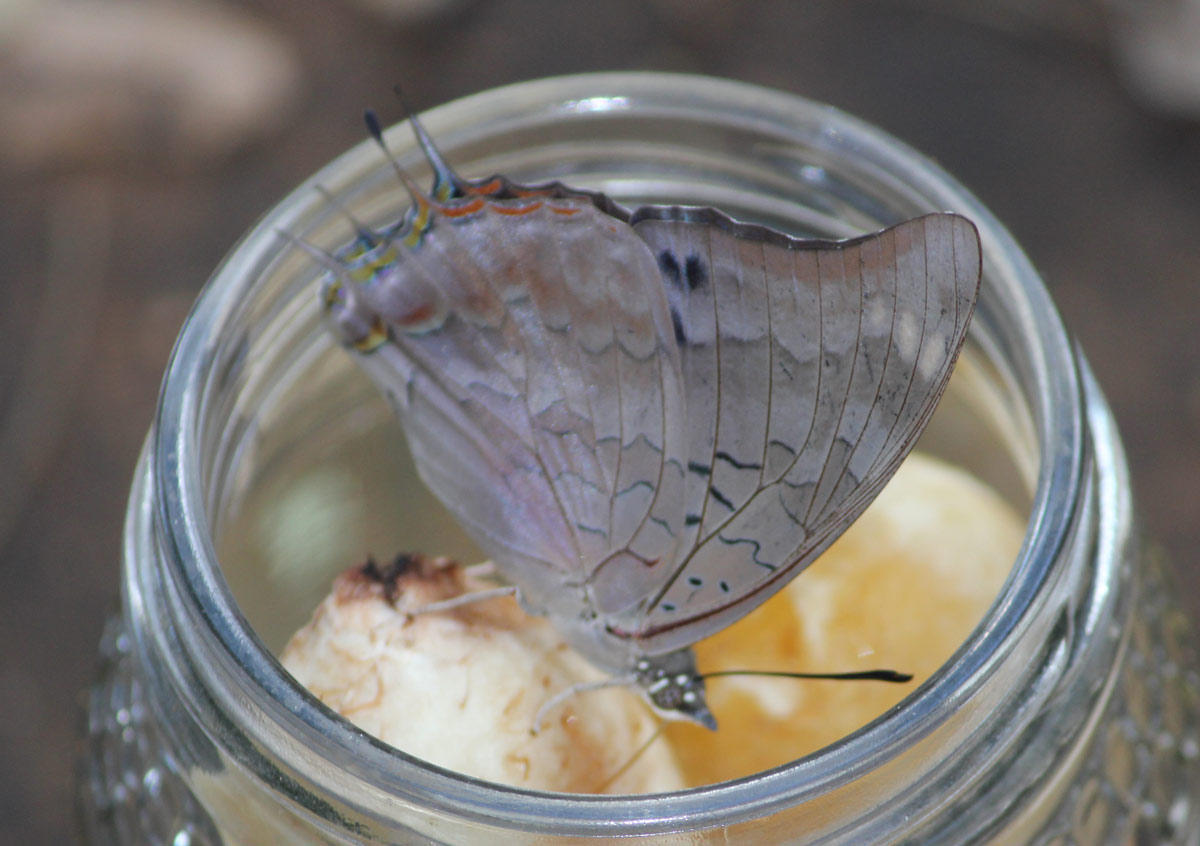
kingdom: Animalia
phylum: Arthropoda
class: Insecta
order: Lepidoptera
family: Nymphalidae
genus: Charaxes
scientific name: Charaxes viola
